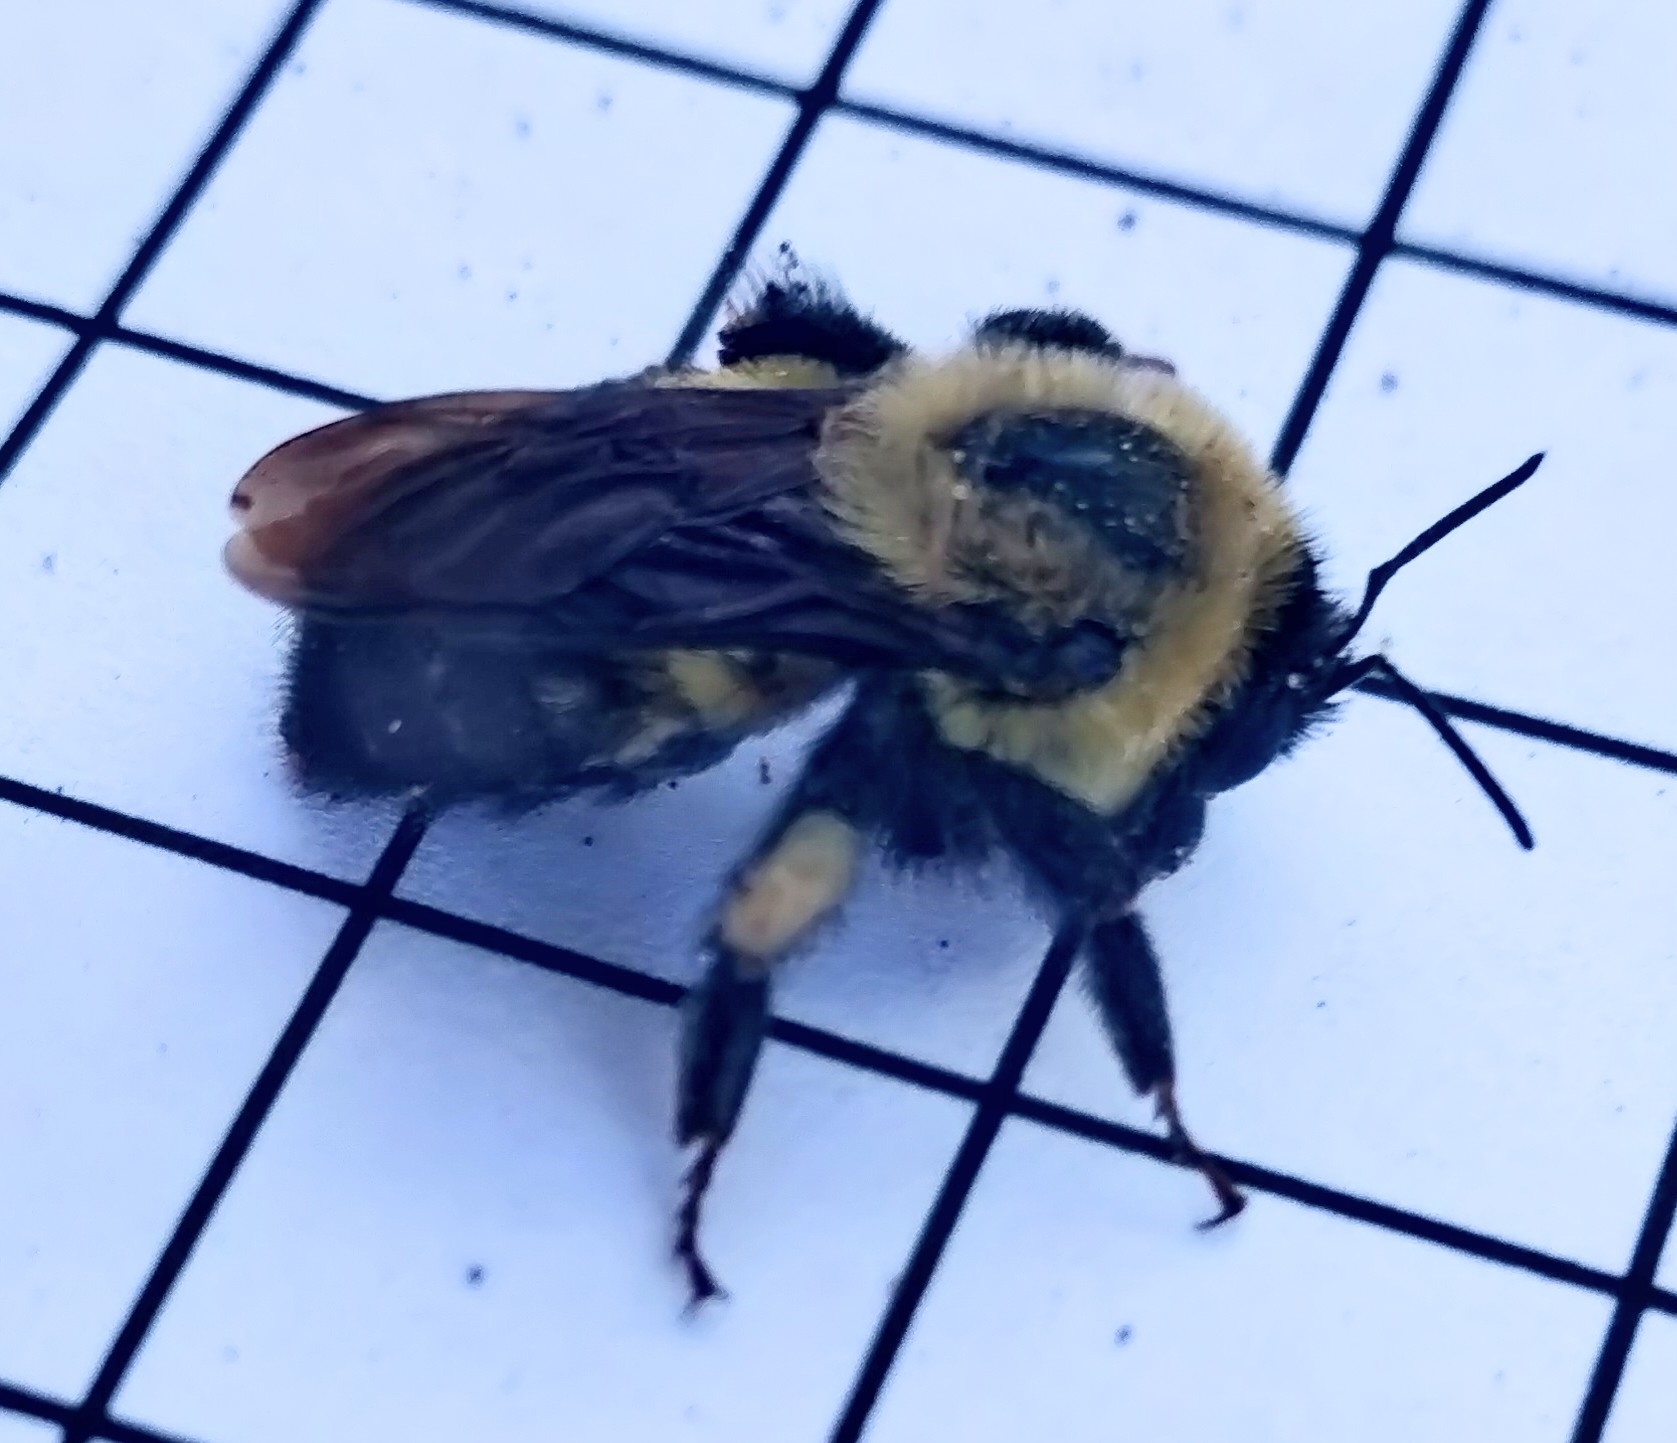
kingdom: Animalia
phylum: Arthropoda
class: Insecta
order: Hymenoptera
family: Apidae
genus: Bombus
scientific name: Bombus griseocollis
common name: Brown-belted bumble bee
